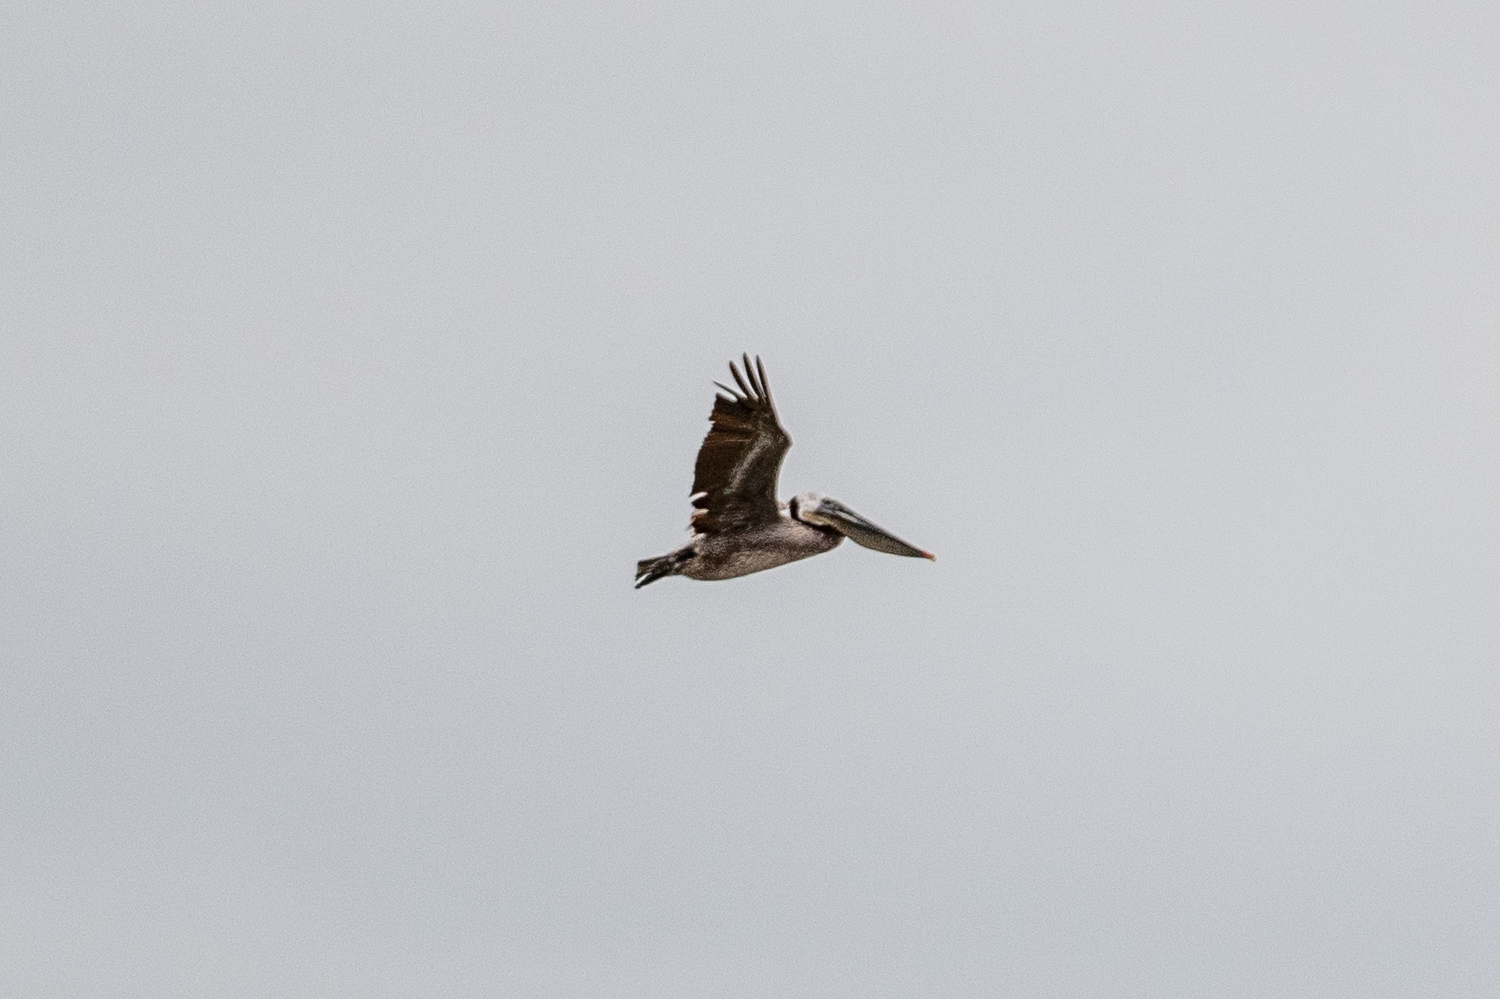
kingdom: Animalia
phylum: Chordata
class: Aves
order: Pelecaniformes
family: Pelecanidae
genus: Pelecanus
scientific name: Pelecanus occidentalis
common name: Brown pelican
